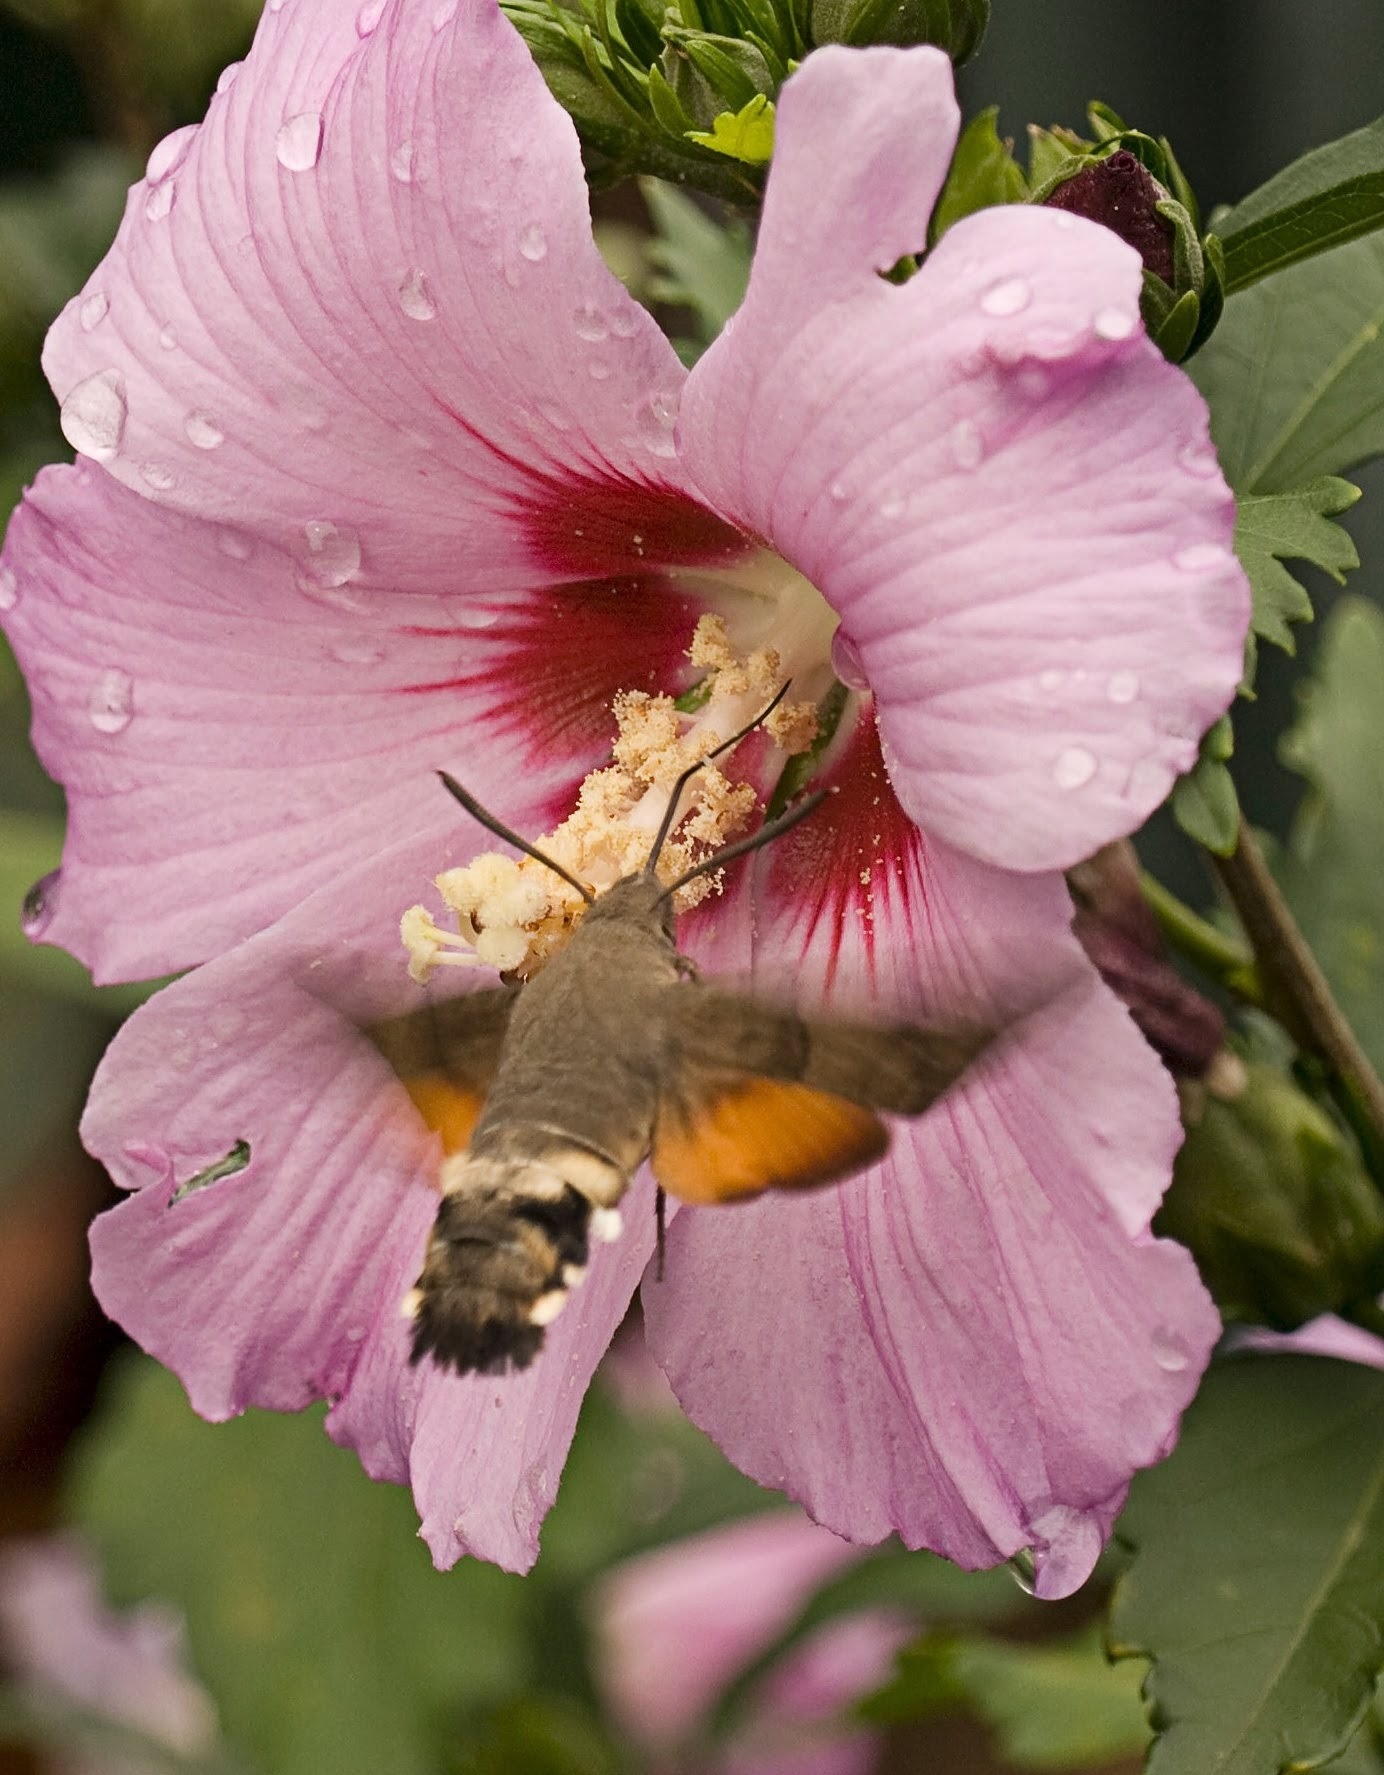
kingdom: Animalia
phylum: Arthropoda
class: Insecta
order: Lepidoptera
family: Sphingidae
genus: Macroglossum
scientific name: Macroglossum stellatarum
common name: Humming-bird hawk-moth
